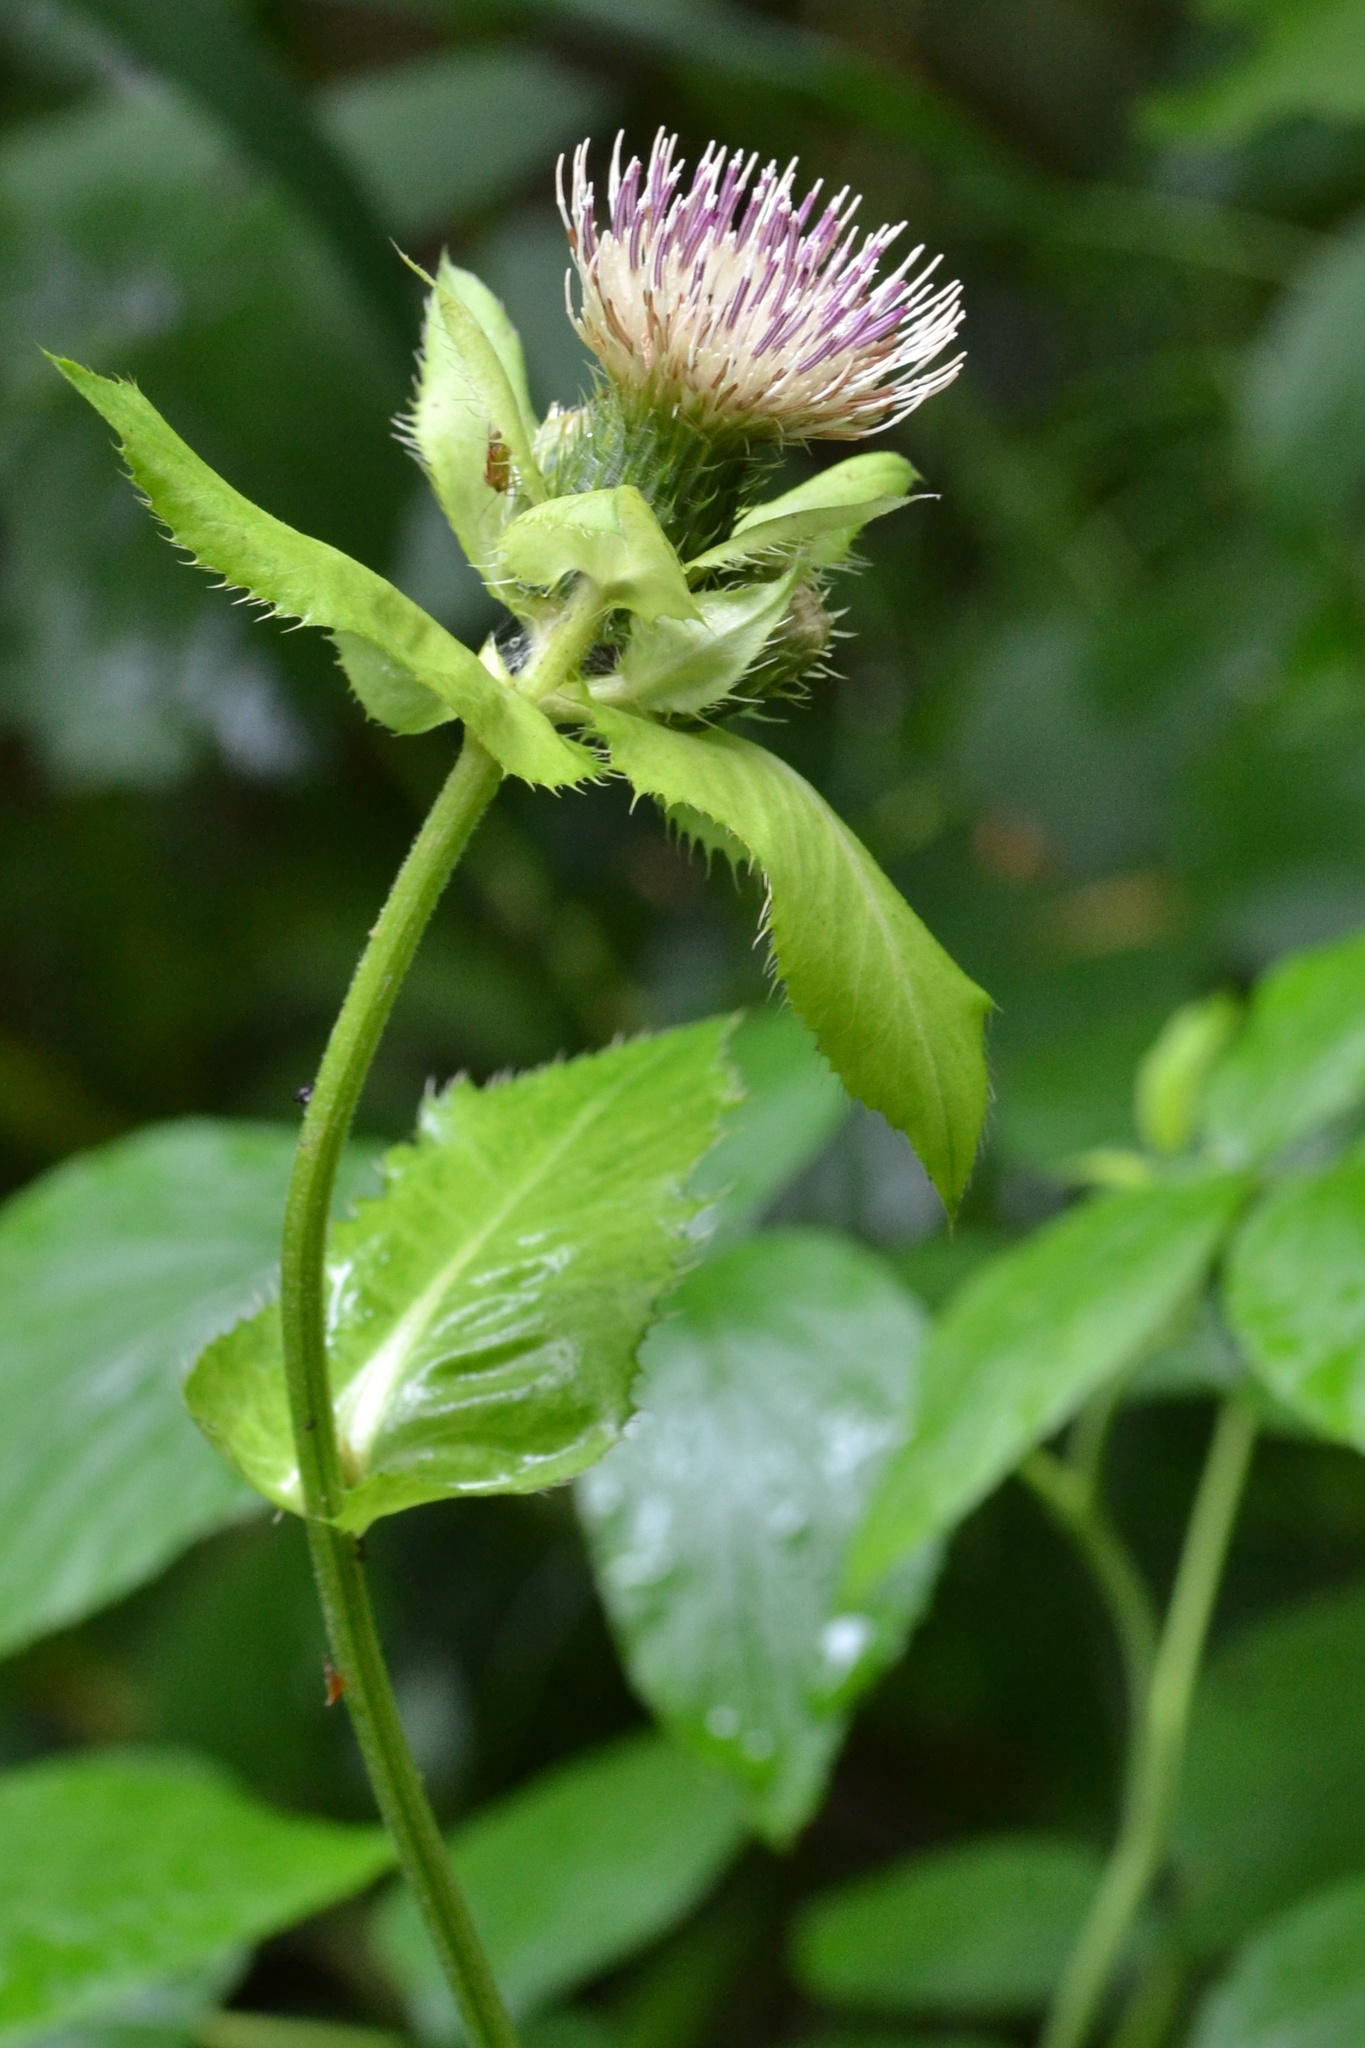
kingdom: Plantae
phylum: Tracheophyta
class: Magnoliopsida
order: Asterales
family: Asteraceae
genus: Cirsium
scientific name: Cirsium oleraceum
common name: Cabbage thistle
